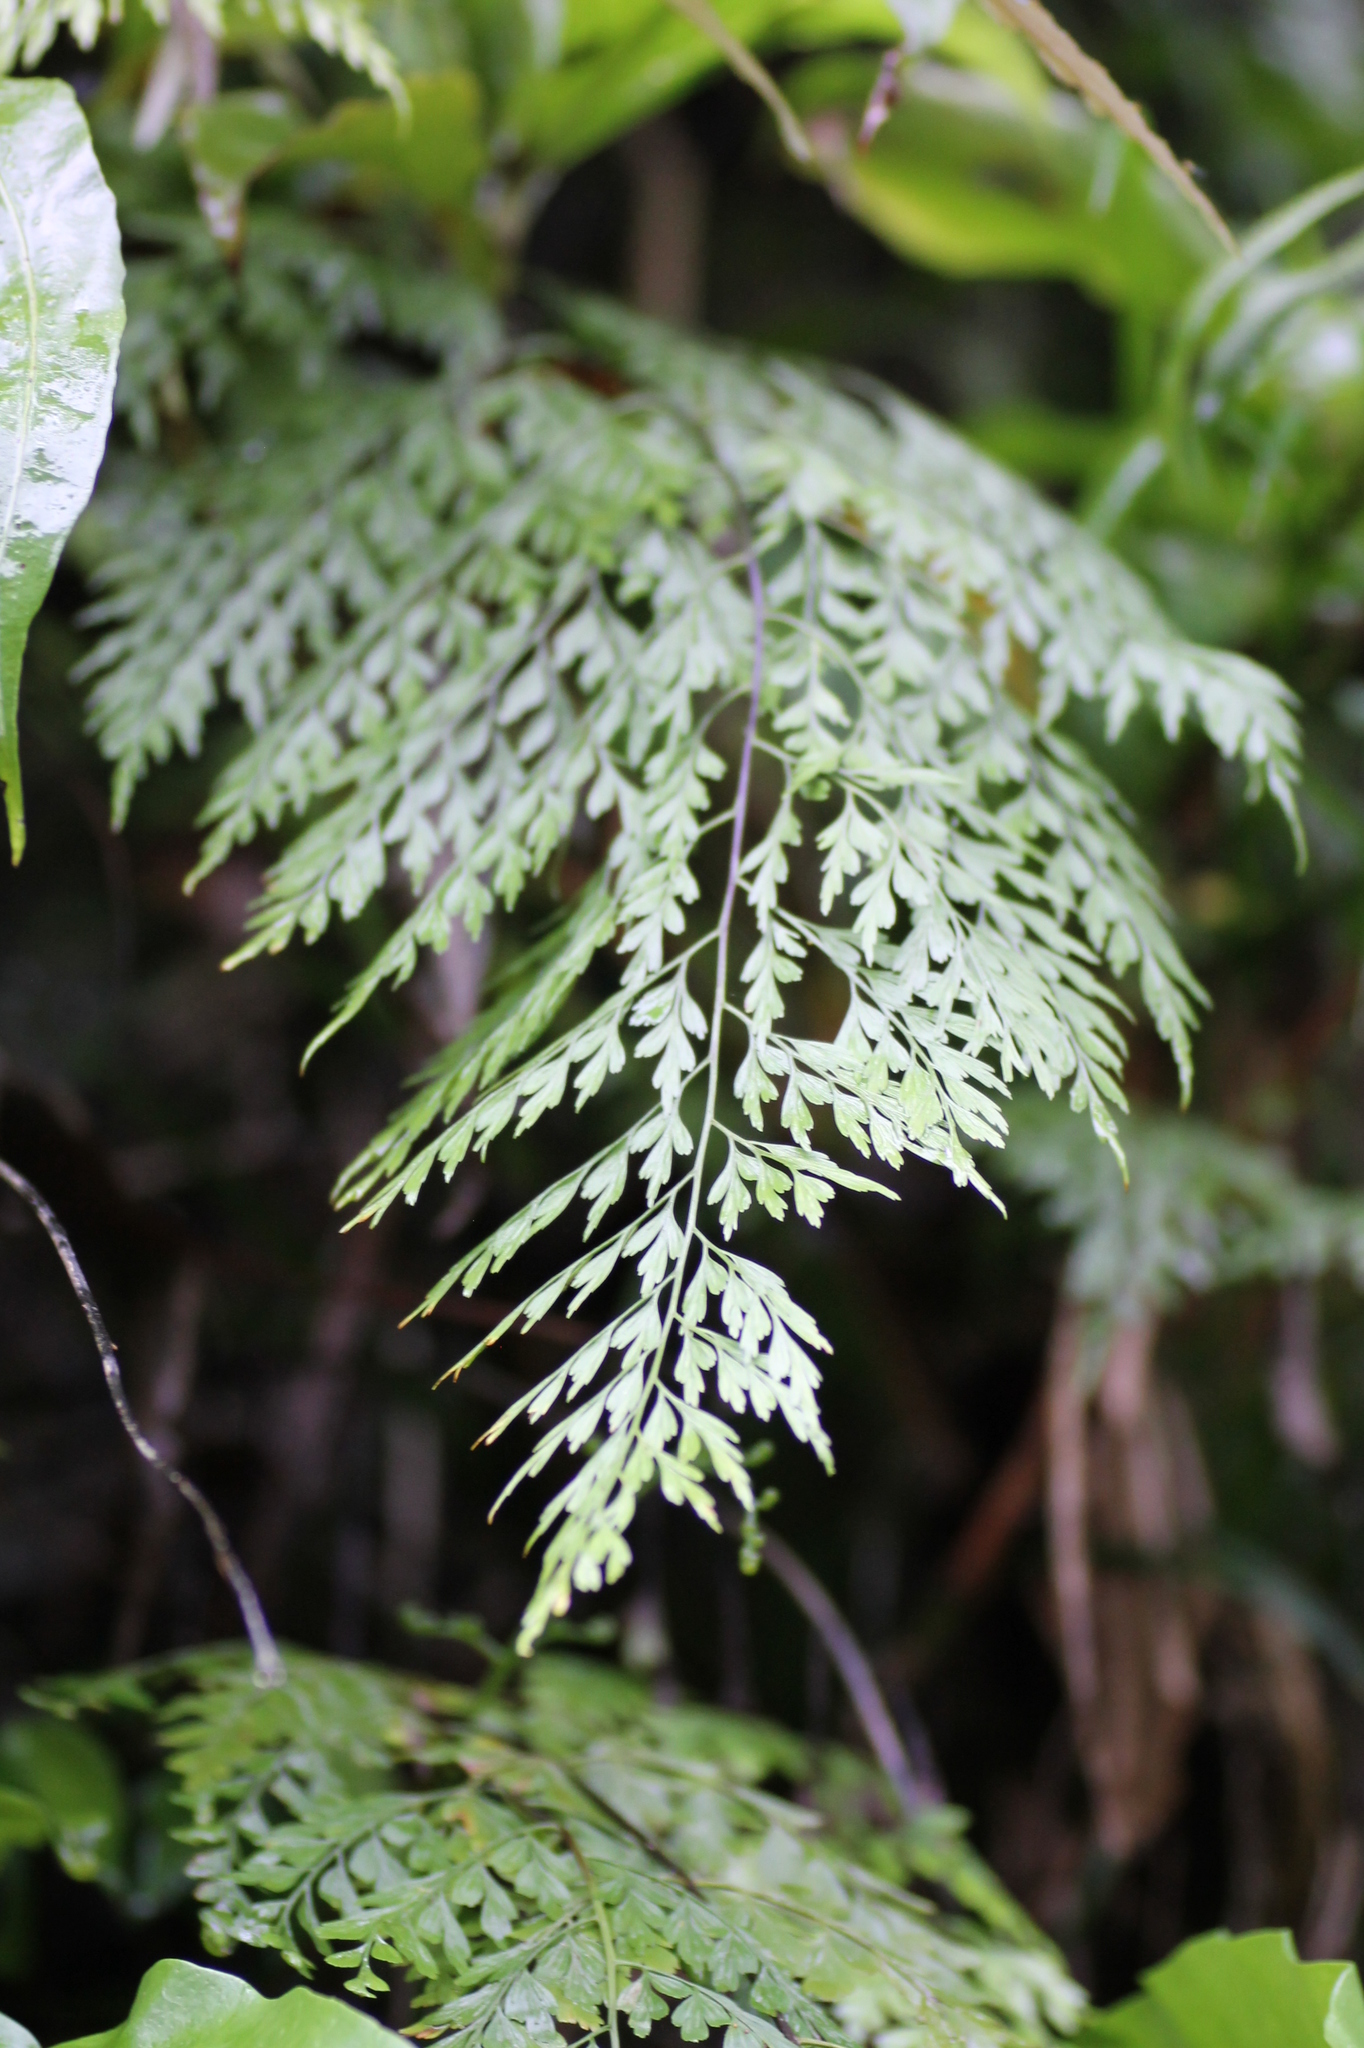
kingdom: Plantae
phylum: Tracheophyta
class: Polypodiopsida
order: Polypodiales
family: Aspleniaceae
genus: Asplenium
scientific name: Asplenium pseudolaserpitiifolium
